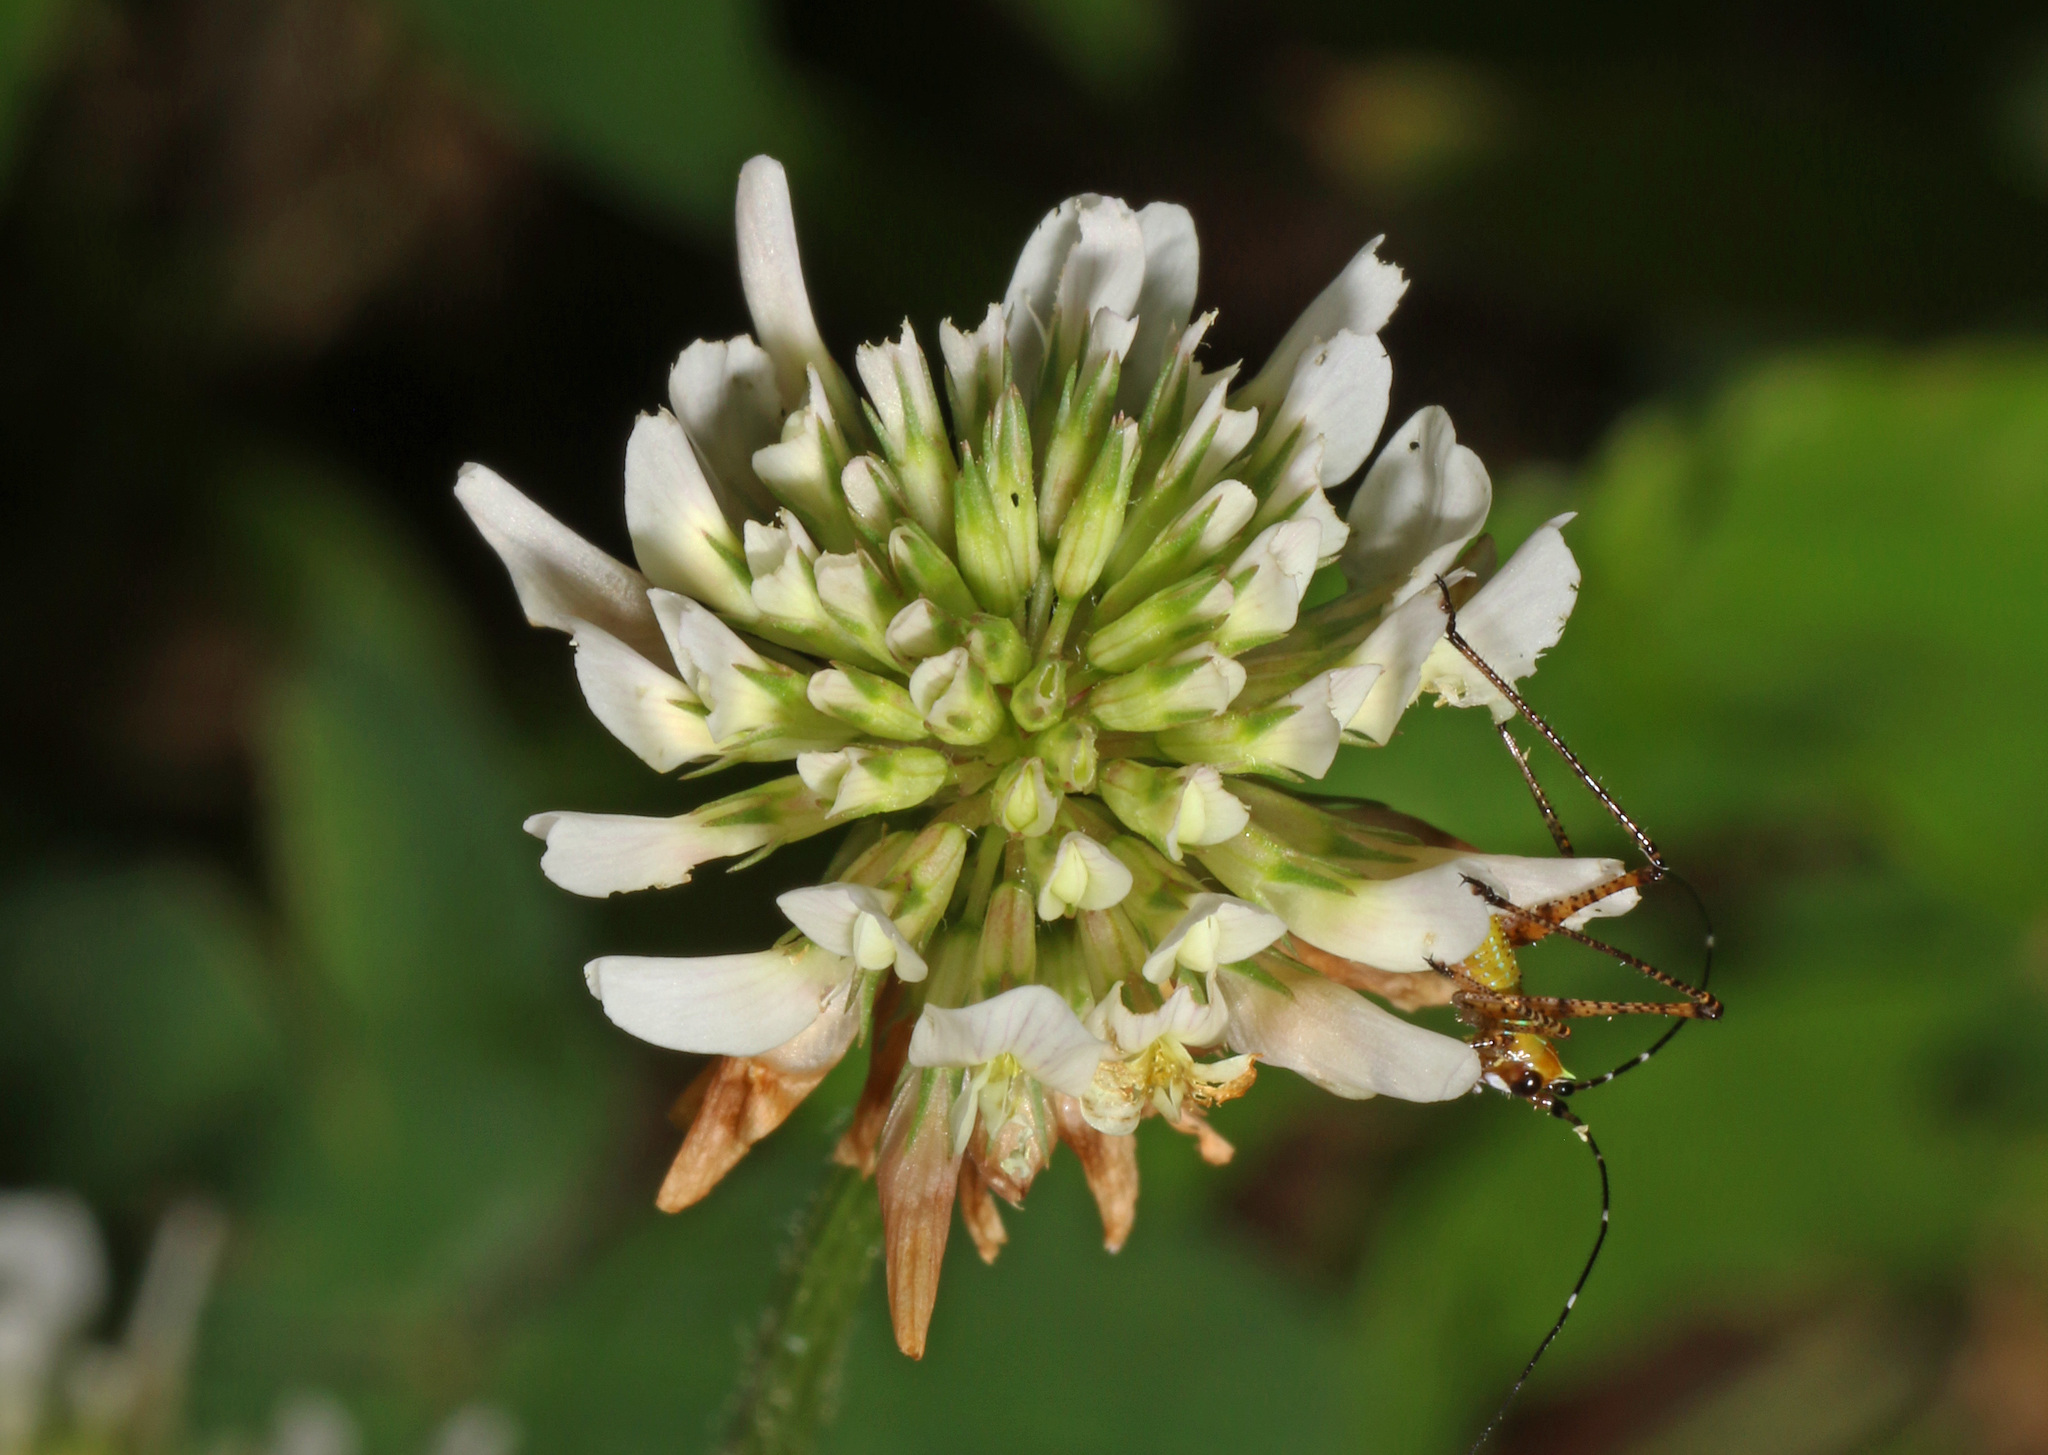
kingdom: Plantae
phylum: Tracheophyta
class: Magnoliopsida
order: Fabales
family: Fabaceae
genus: Trifolium
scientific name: Trifolium repens
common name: White clover
